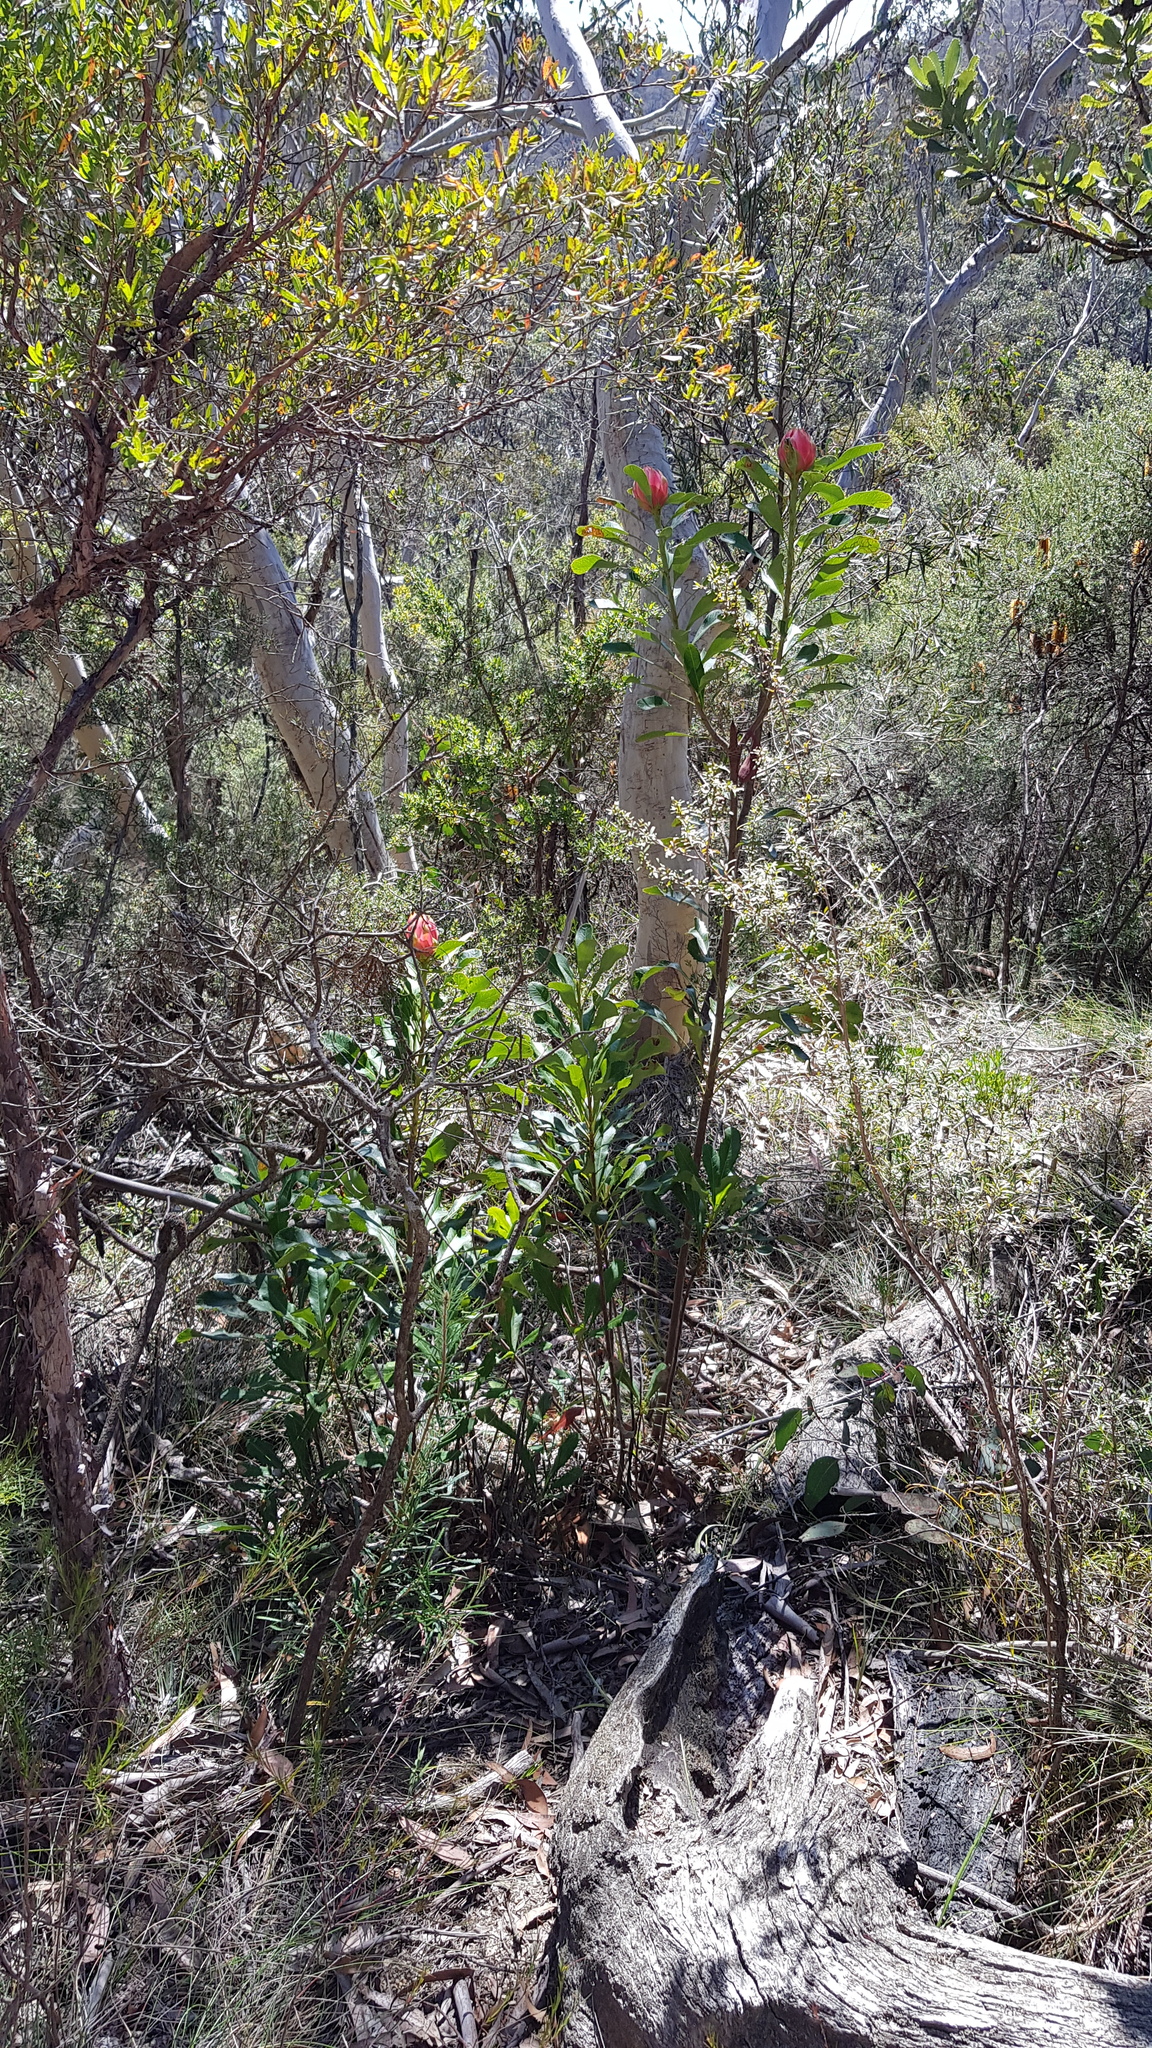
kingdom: Plantae
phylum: Tracheophyta
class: Magnoliopsida
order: Proteales
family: Proteaceae
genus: Telopea
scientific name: Telopea speciosissima
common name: New south wales waratah
